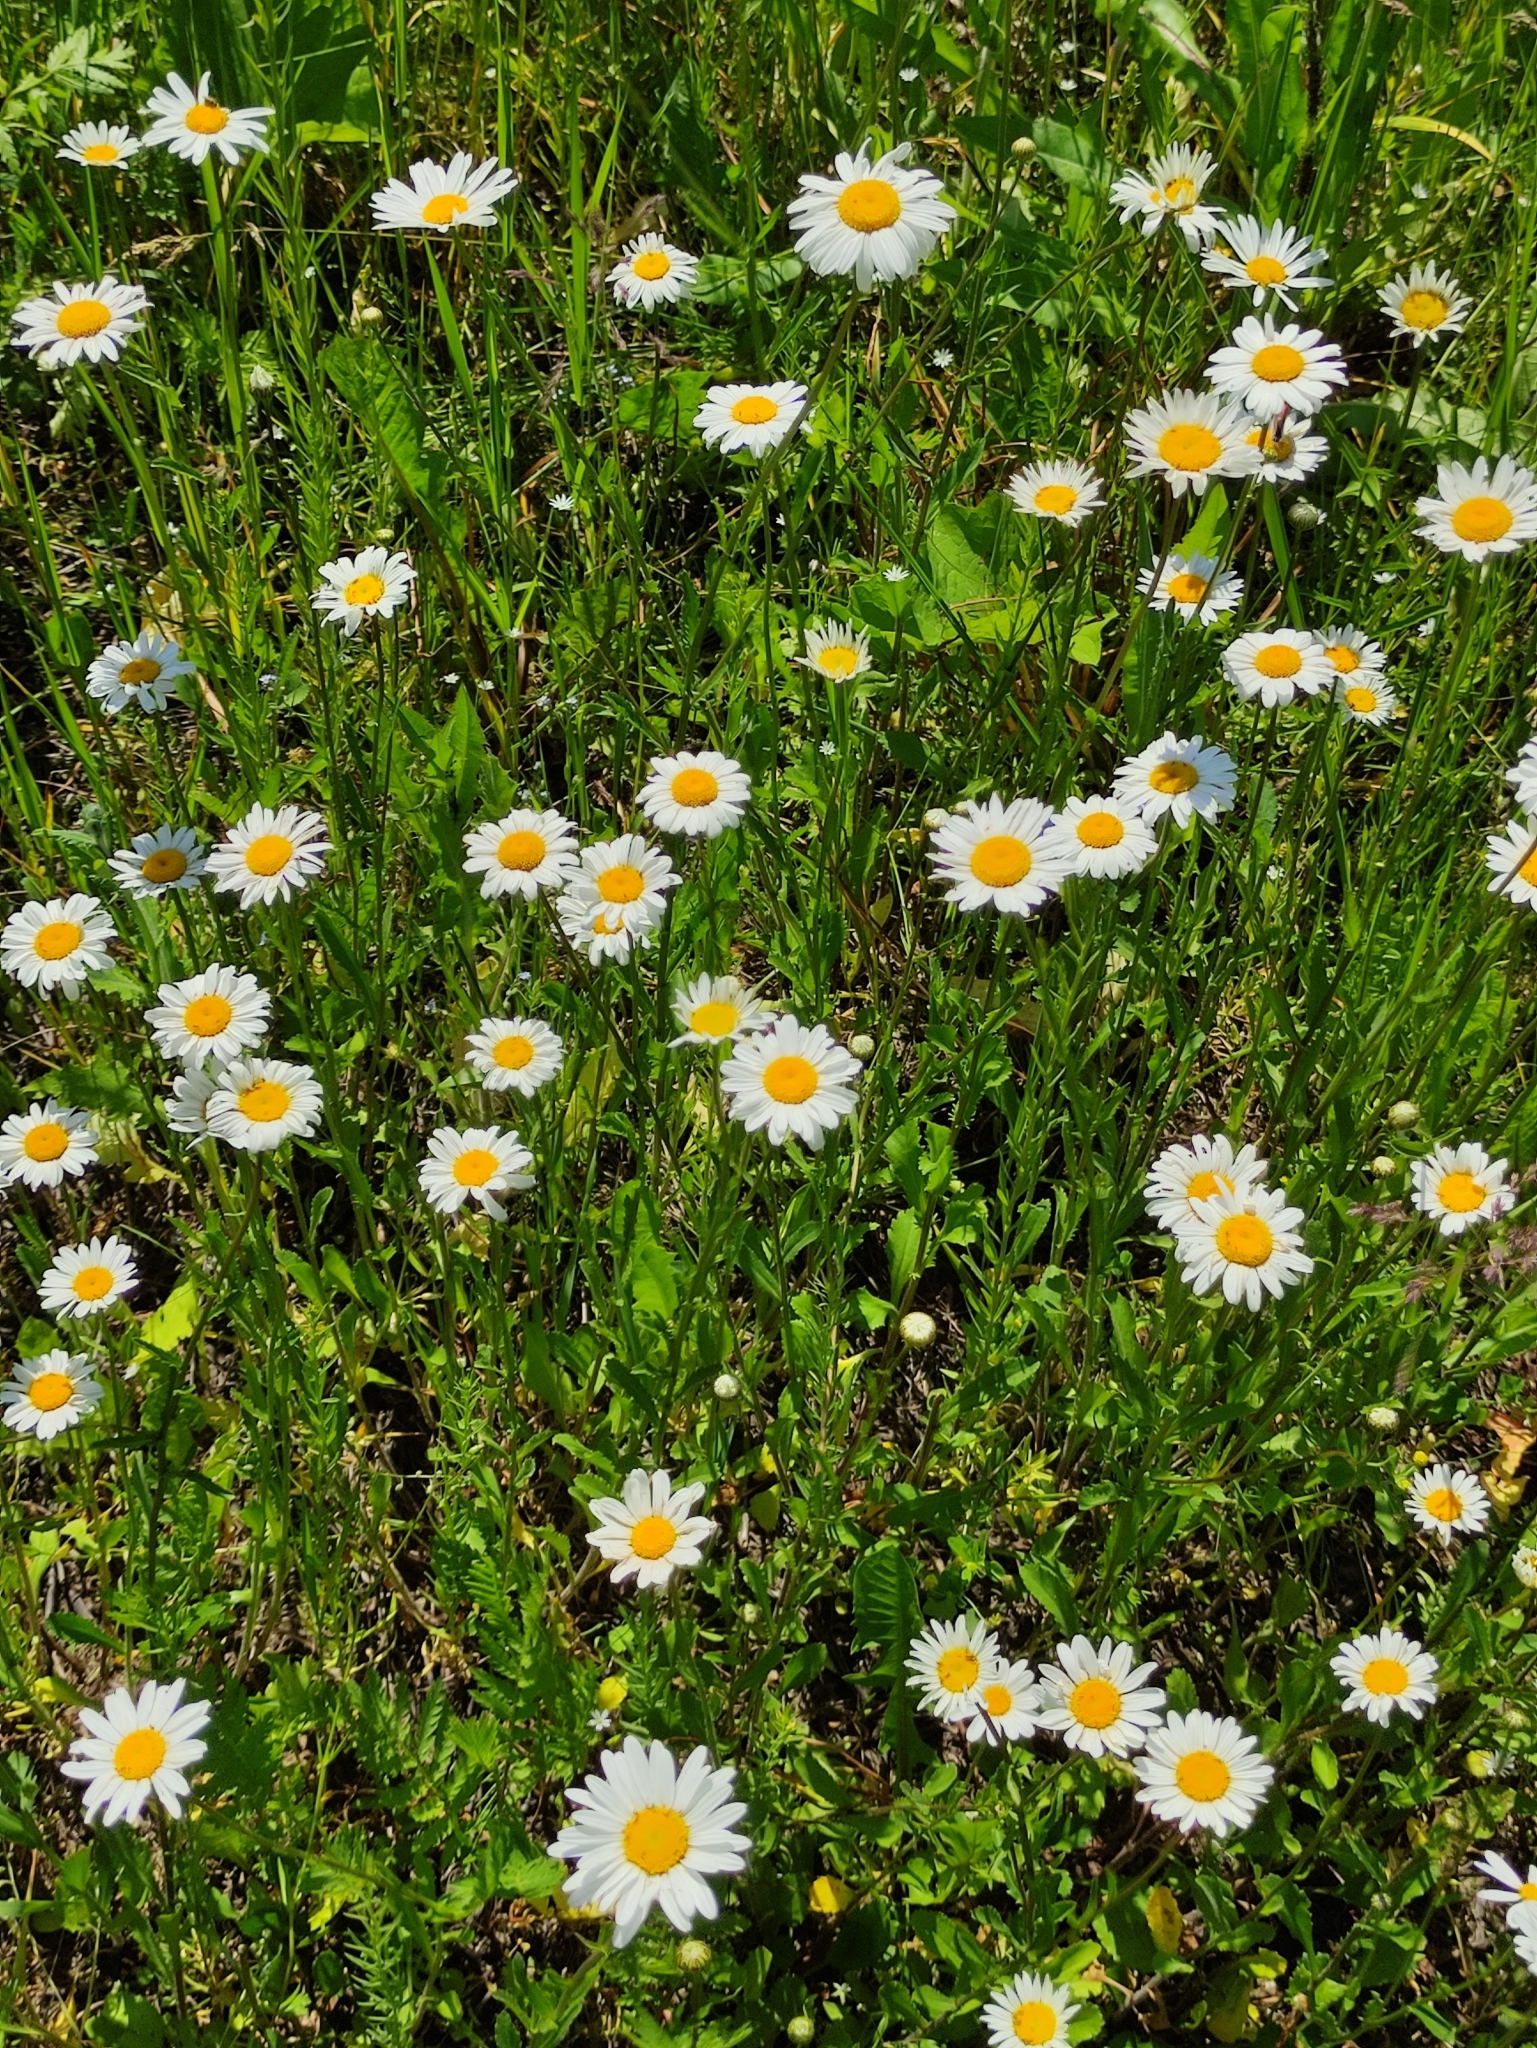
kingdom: Plantae
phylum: Tracheophyta
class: Magnoliopsida
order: Asterales
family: Asteraceae
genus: Leucanthemum
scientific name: Leucanthemum vulgare
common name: Oxeye daisy
